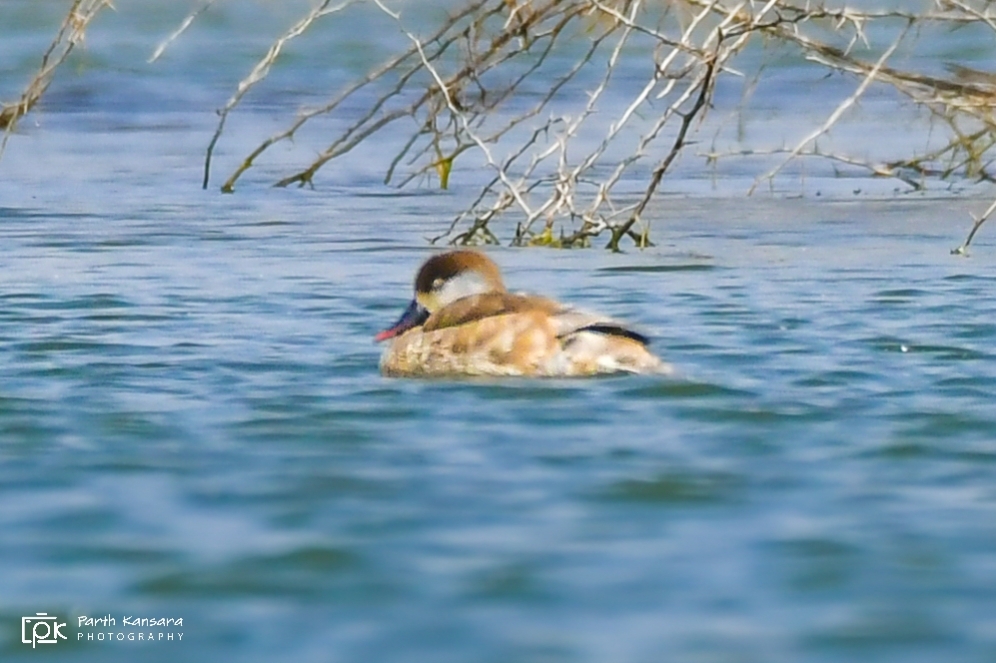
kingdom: Animalia
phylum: Chordata
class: Aves
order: Anseriformes
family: Anatidae
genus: Netta
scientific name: Netta rufina
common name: Red-crested pochard
